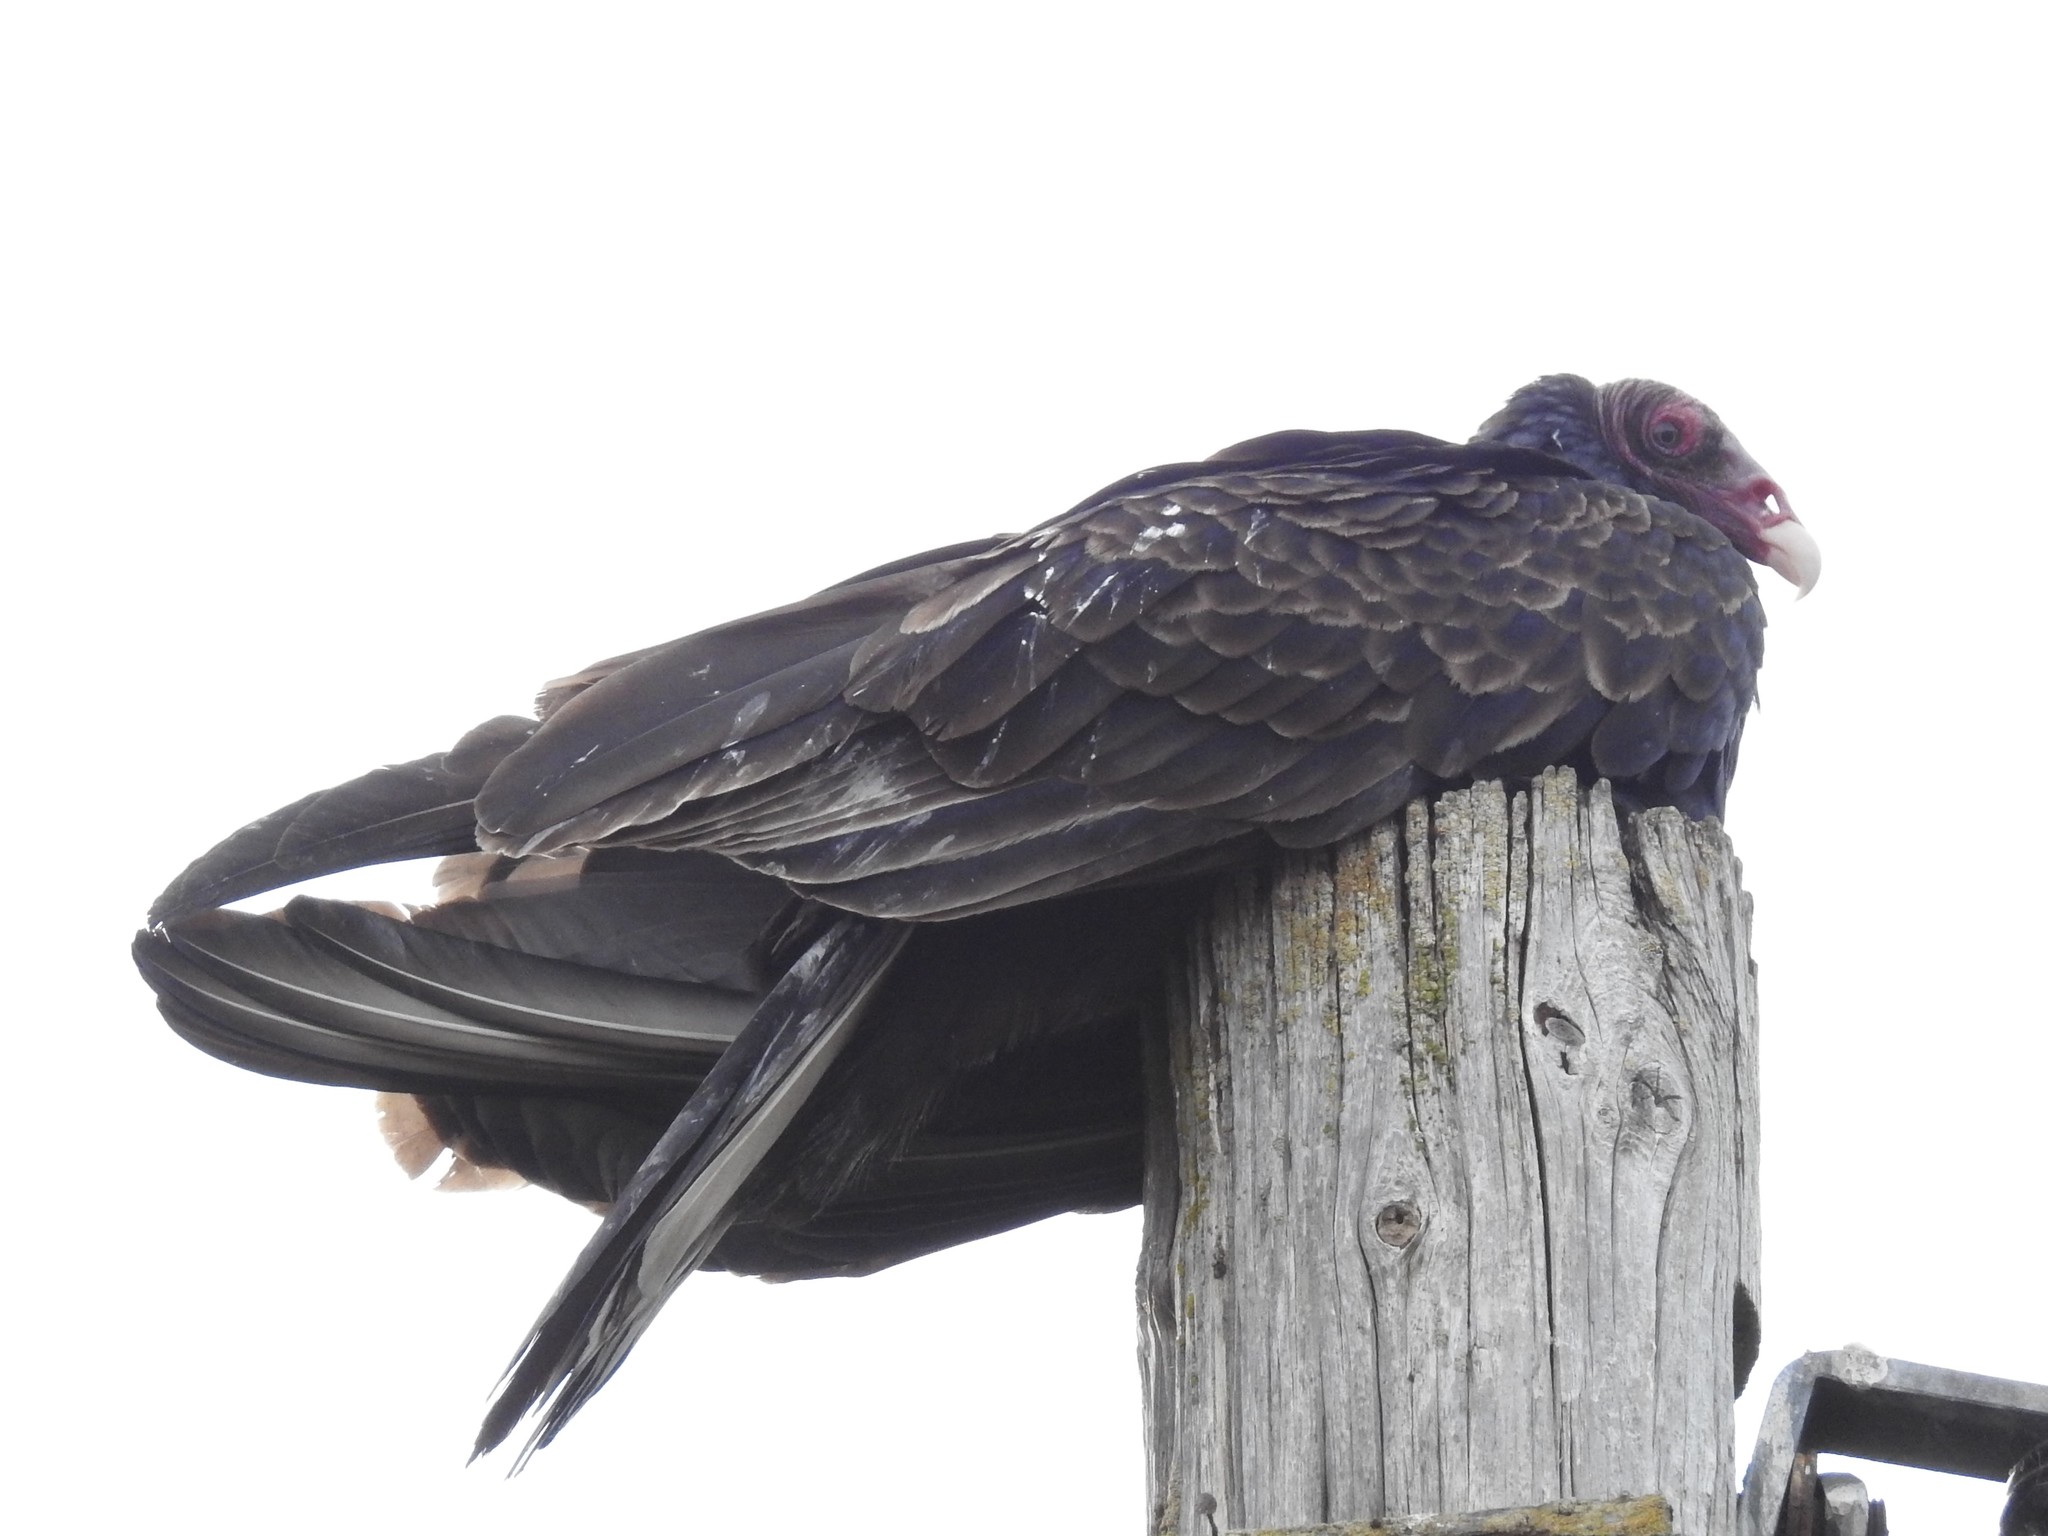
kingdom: Animalia
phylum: Chordata
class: Aves
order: Accipitriformes
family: Cathartidae
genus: Cathartes
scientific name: Cathartes aura
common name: Turkey vulture
